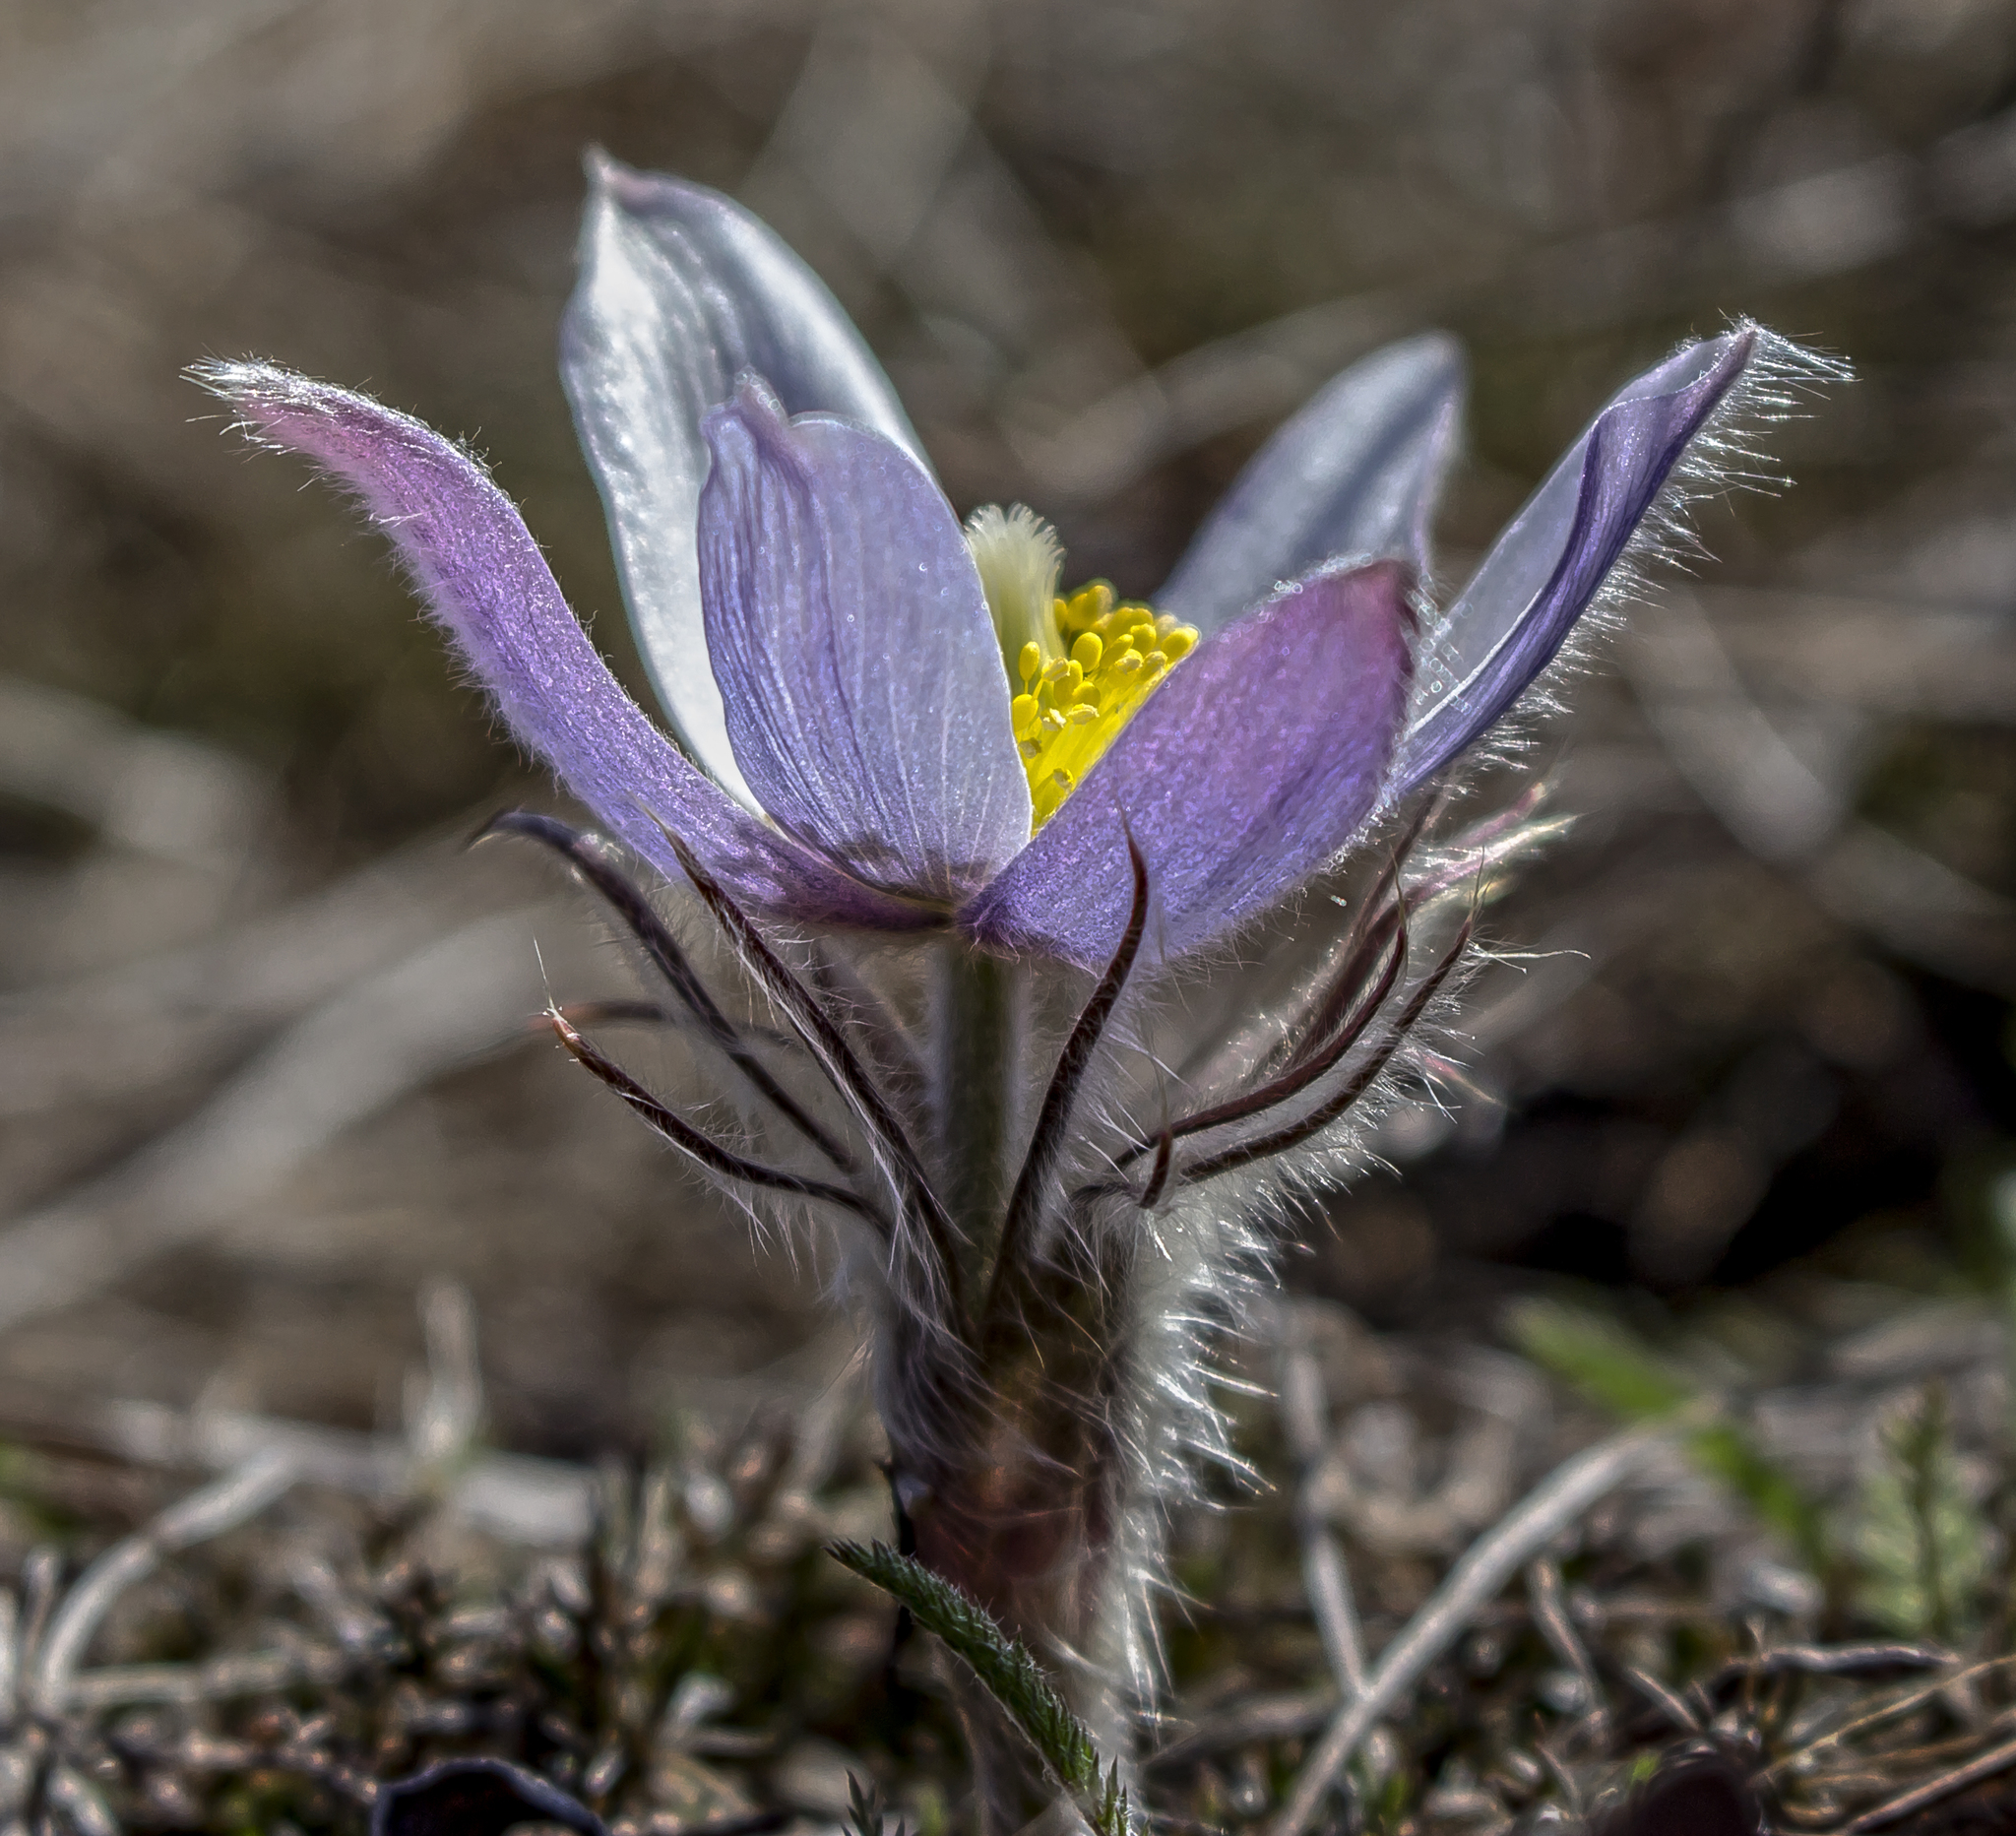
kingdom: Plantae
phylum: Tracheophyta
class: Magnoliopsida
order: Ranunculales
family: Ranunculaceae
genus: Pulsatilla
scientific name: Pulsatilla nuttalliana
